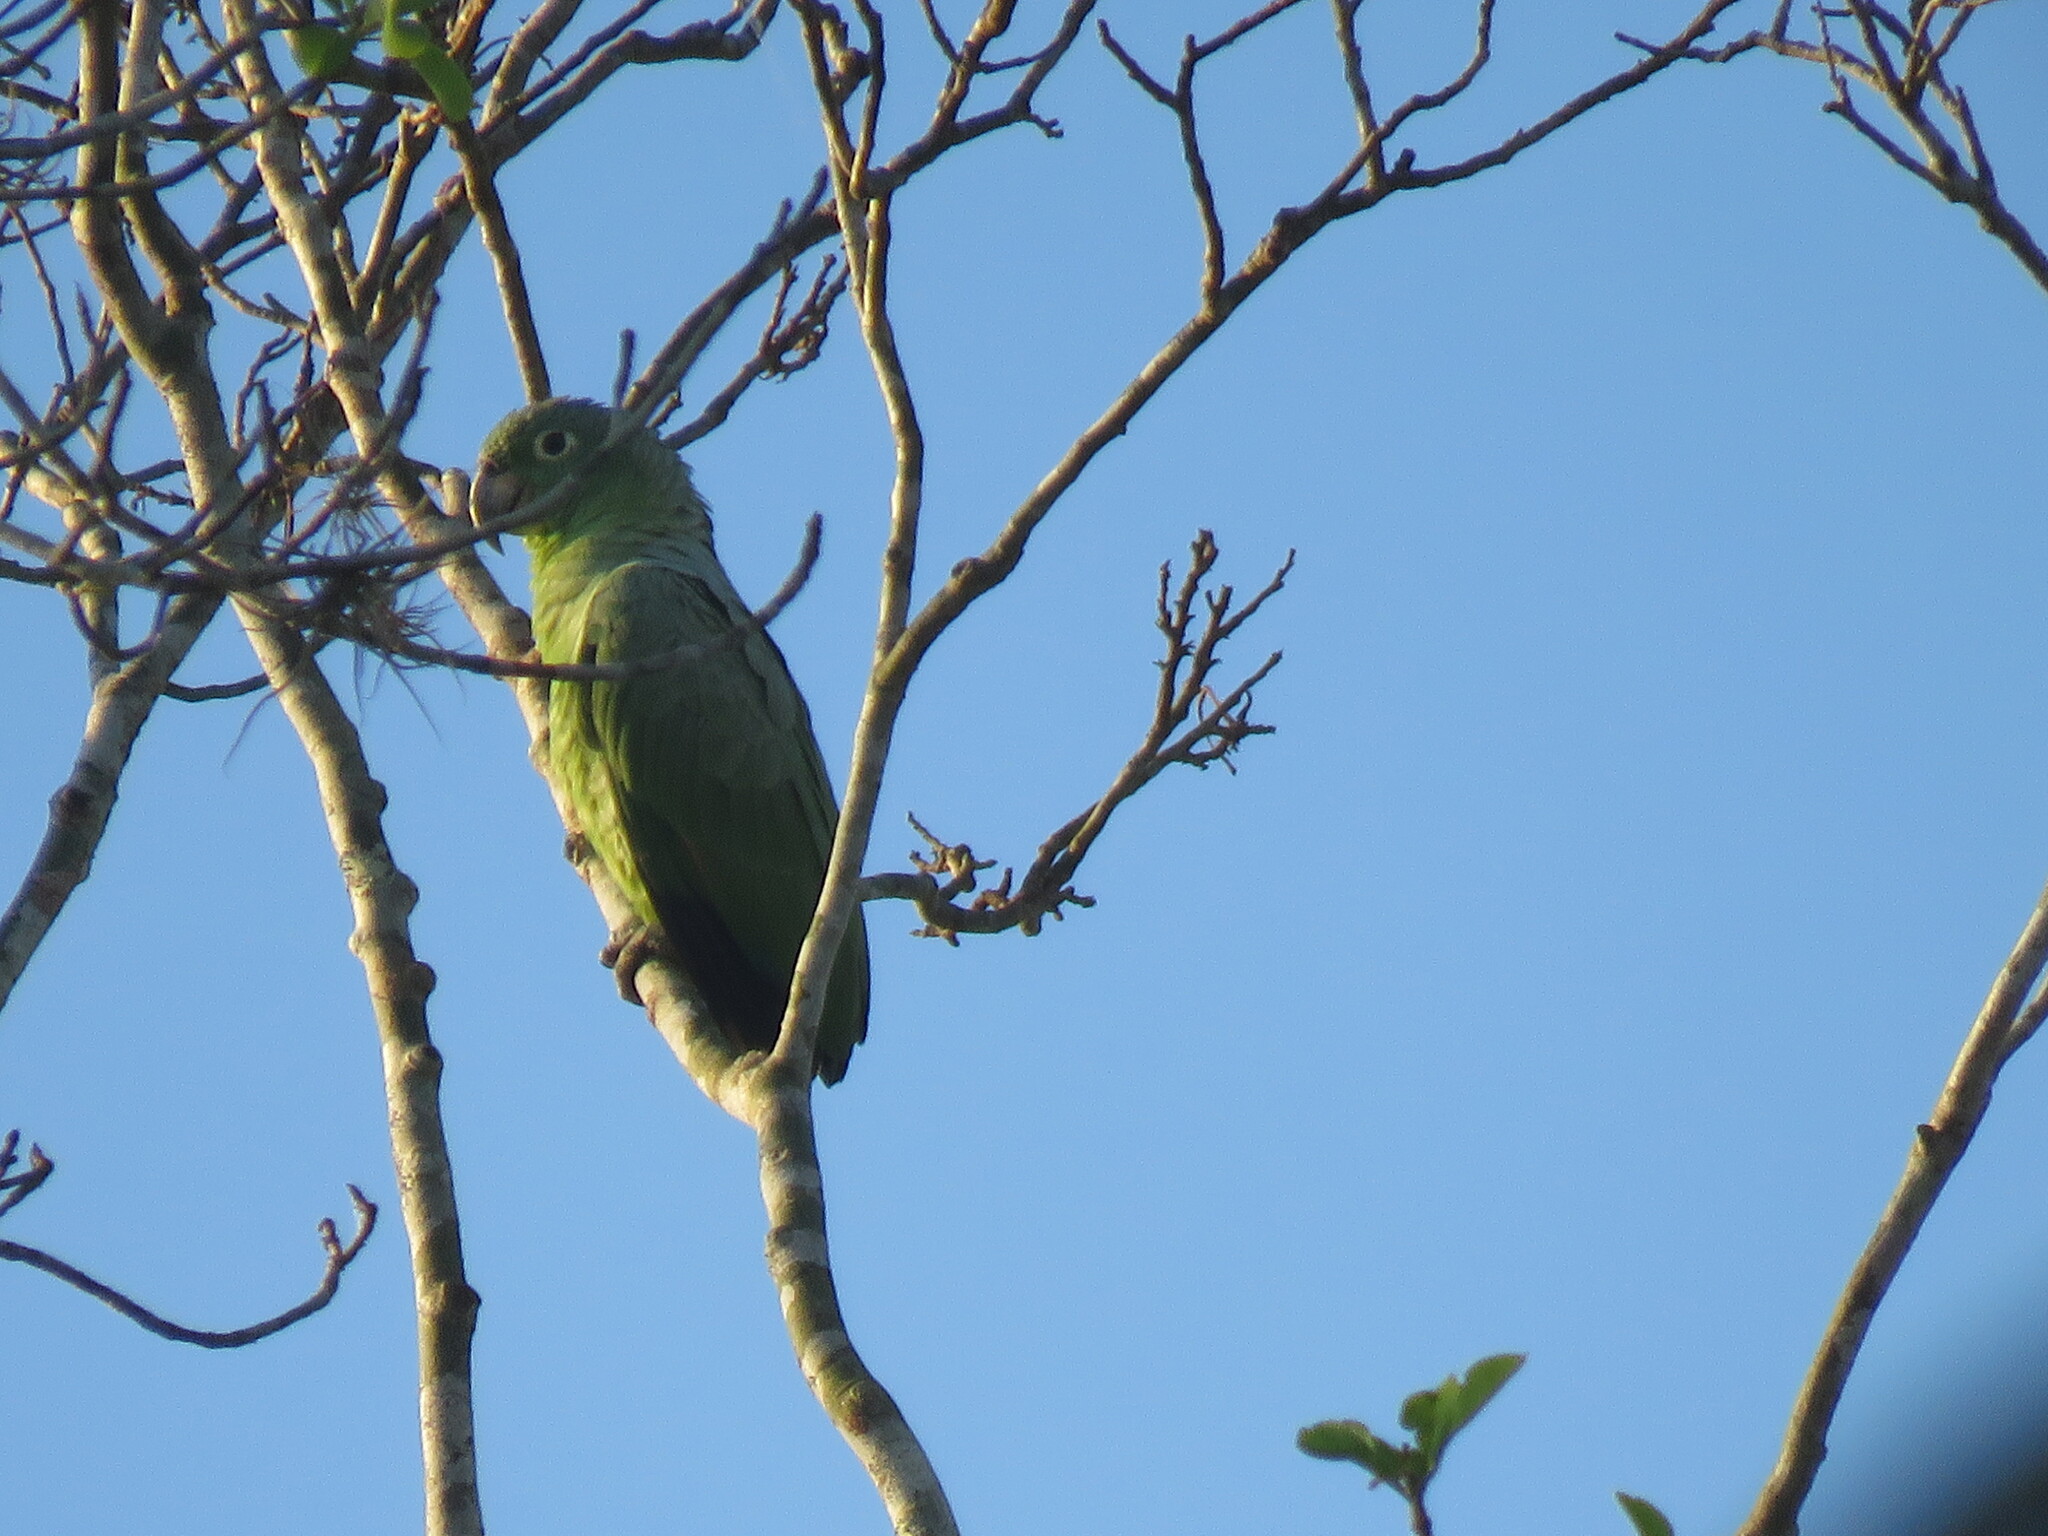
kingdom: Animalia
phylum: Chordata
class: Aves
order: Psittaciformes
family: Psittacidae
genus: Amazona
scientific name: Amazona farinosa
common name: Mealy parrot
